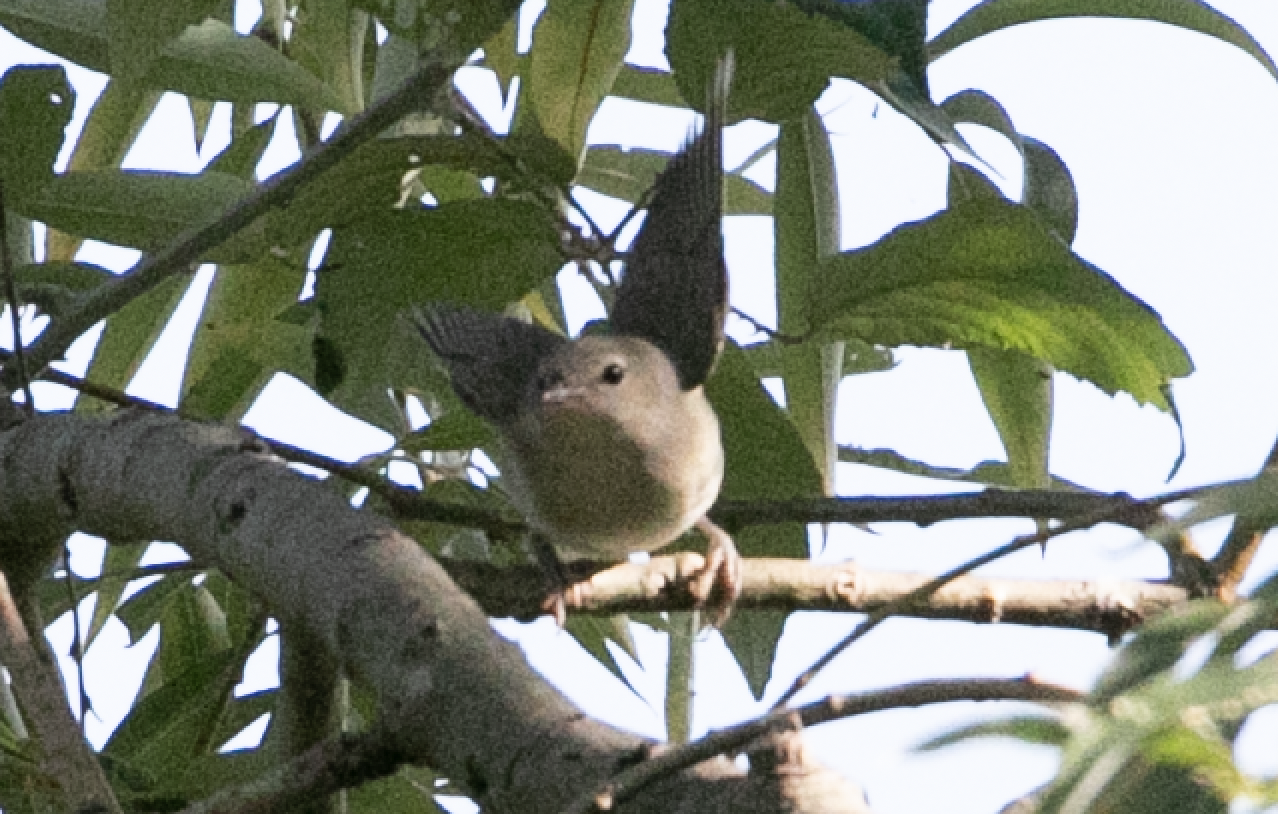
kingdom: Animalia
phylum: Chordata
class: Aves
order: Passeriformes
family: Sylviidae
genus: Sylvia
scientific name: Sylvia borin
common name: Garden warbler
